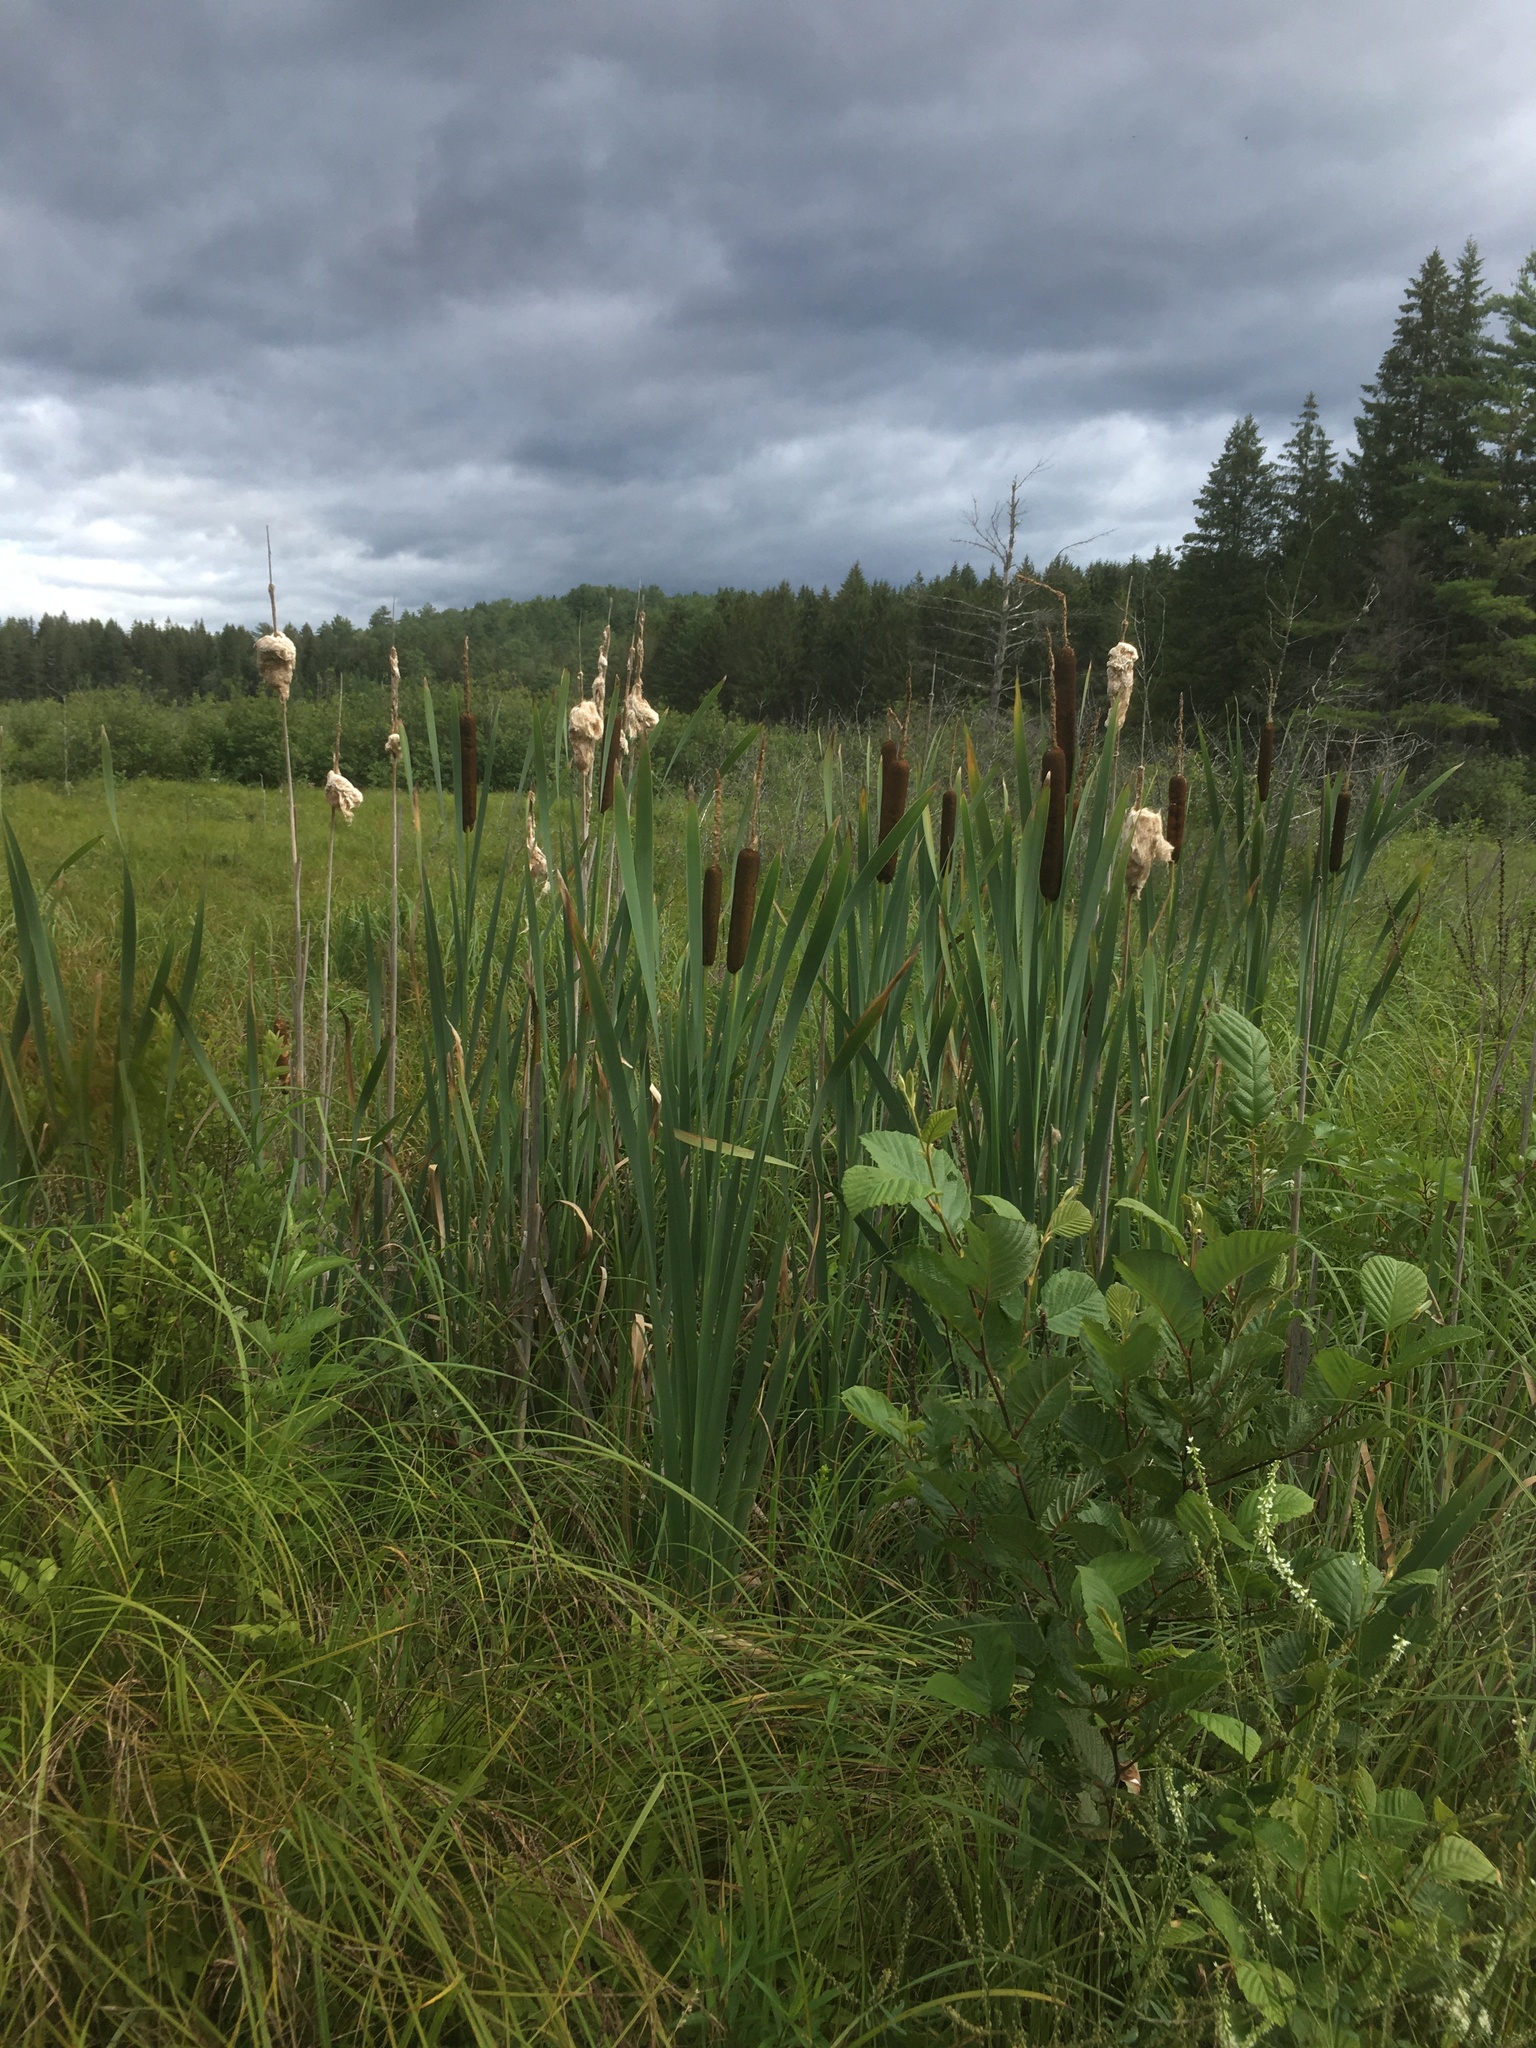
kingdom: Plantae
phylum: Tracheophyta
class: Magnoliopsida
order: Fabales
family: Fabaceae
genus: Melilotus
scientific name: Melilotus albus
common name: White melilot
